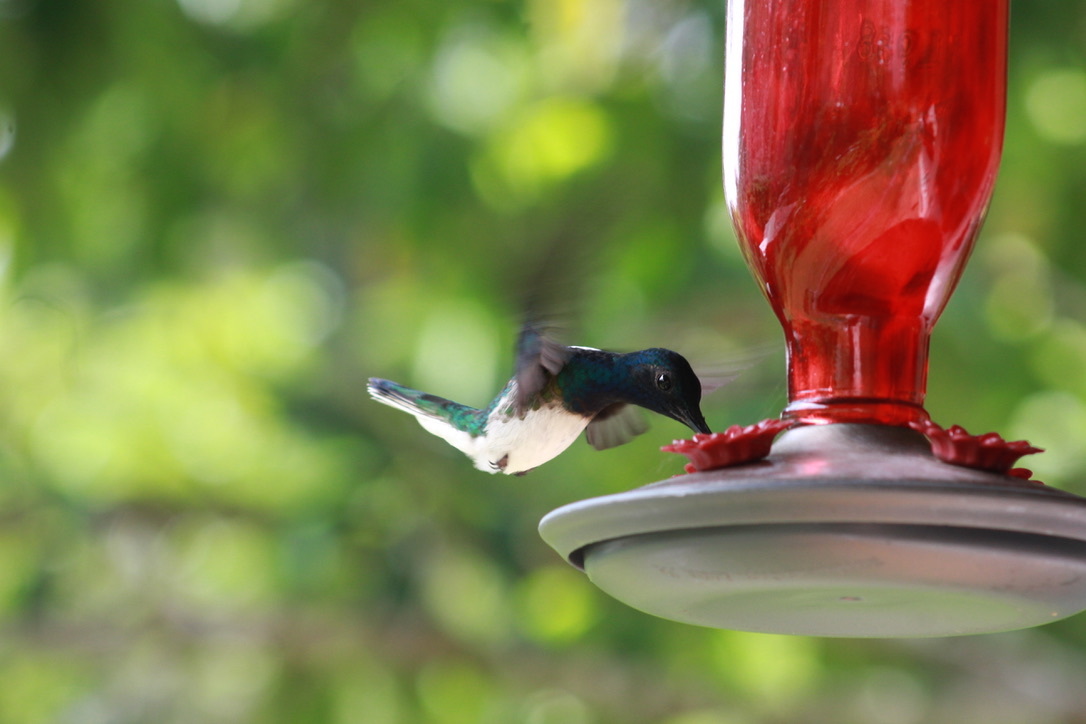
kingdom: Animalia
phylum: Chordata
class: Aves
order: Apodiformes
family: Trochilidae
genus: Florisuga
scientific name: Florisuga mellivora
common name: White-necked jacobin
